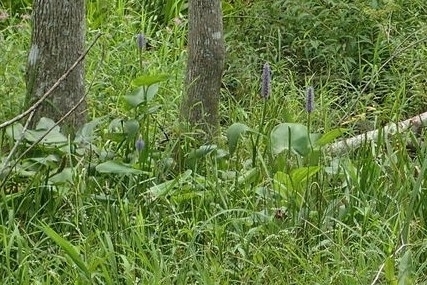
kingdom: Plantae
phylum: Tracheophyta
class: Liliopsida
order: Commelinales
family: Pontederiaceae
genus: Pontederia
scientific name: Pontederia cordata
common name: Pickerelweed
